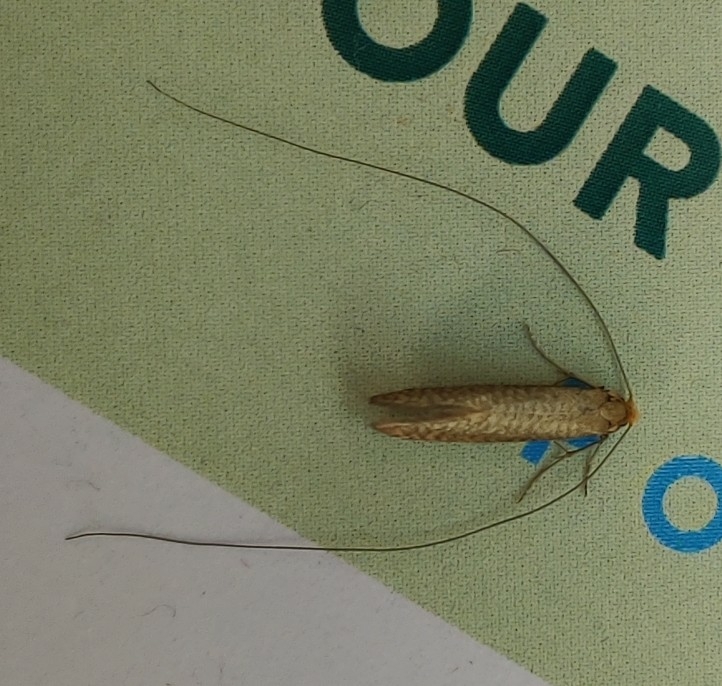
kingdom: Animalia
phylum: Arthropoda
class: Insecta
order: Lepidoptera
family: Adelidae
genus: Nematopogon
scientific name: Nematopogon adansoniella
